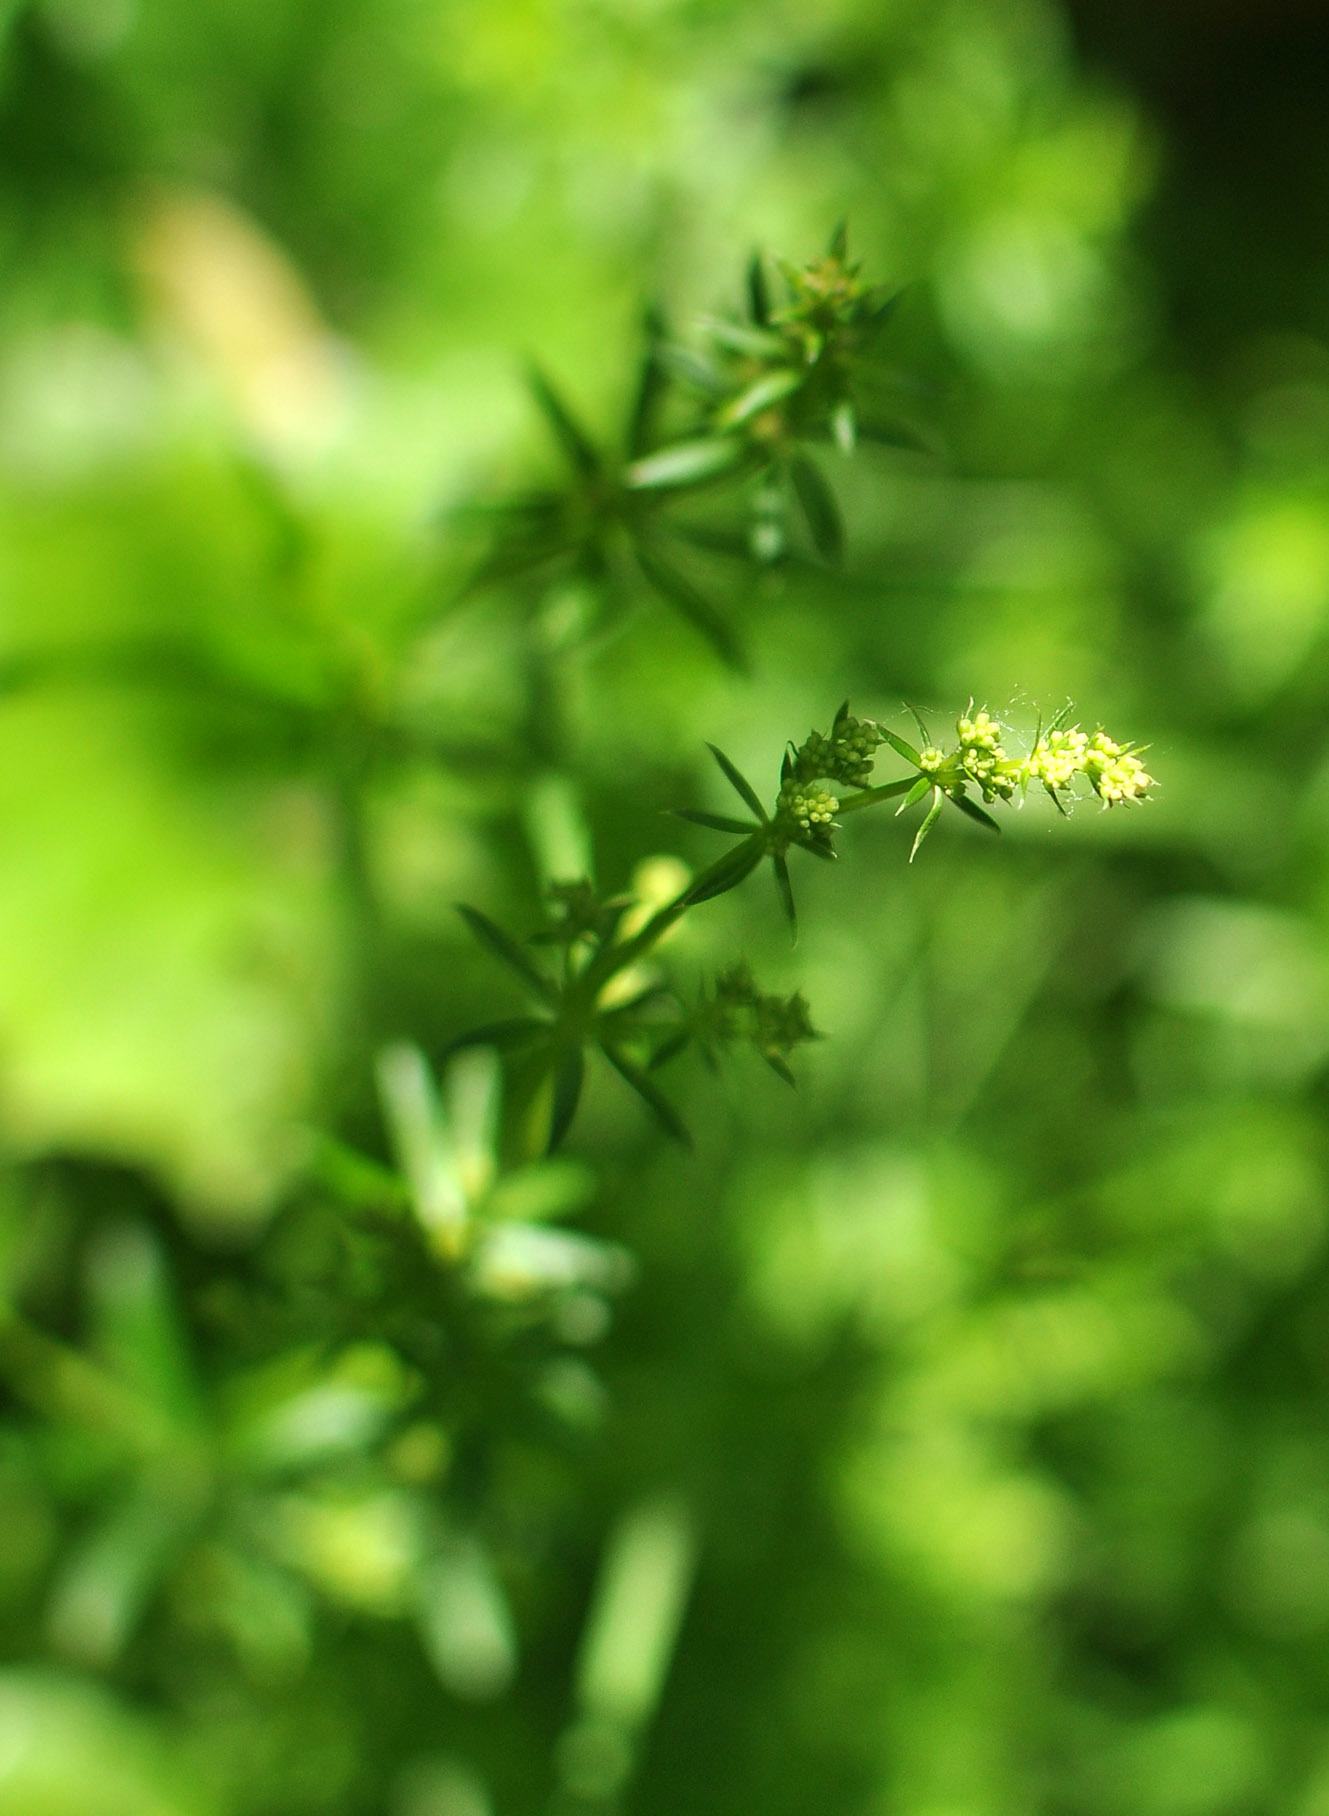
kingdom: Plantae
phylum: Tracheophyta
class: Magnoliopsida
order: Gentianales
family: Rubiaceae
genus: Galium
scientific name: Galium mollugo
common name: Hedge bedstraw
